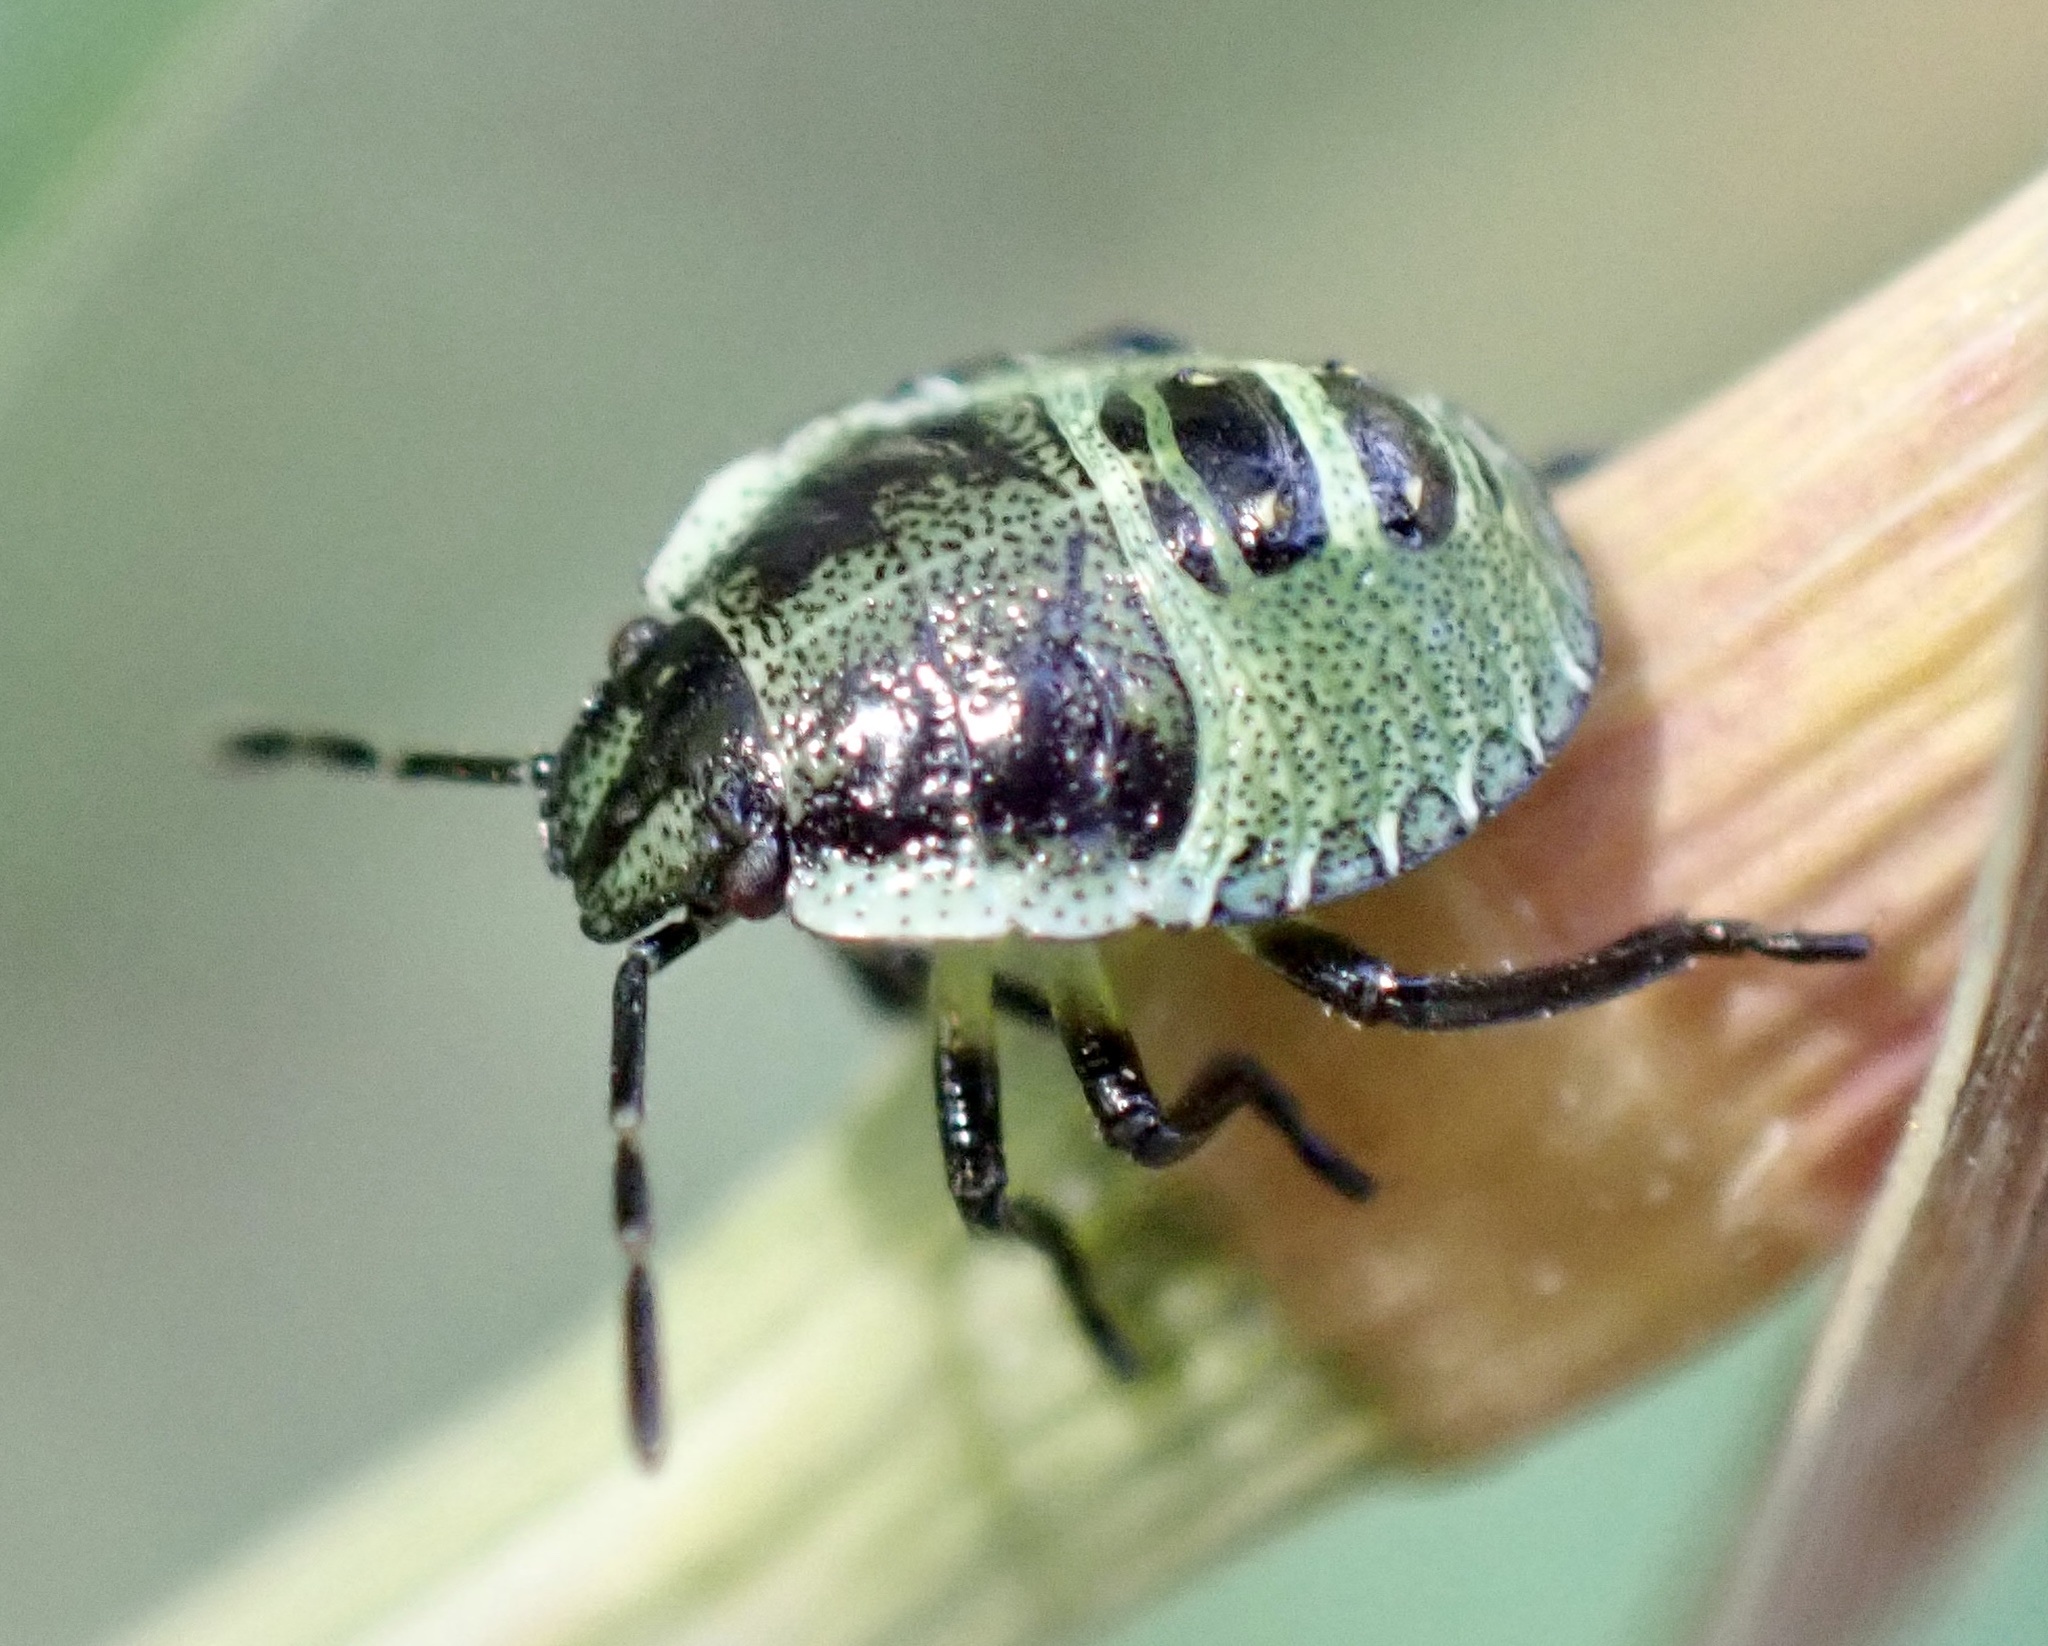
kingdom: Animalia
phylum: Arthropoda
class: Insecta
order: Hemiptera
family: Pentatomidae
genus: Palomena
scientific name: Palomena prasina
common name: Green shieldbug
